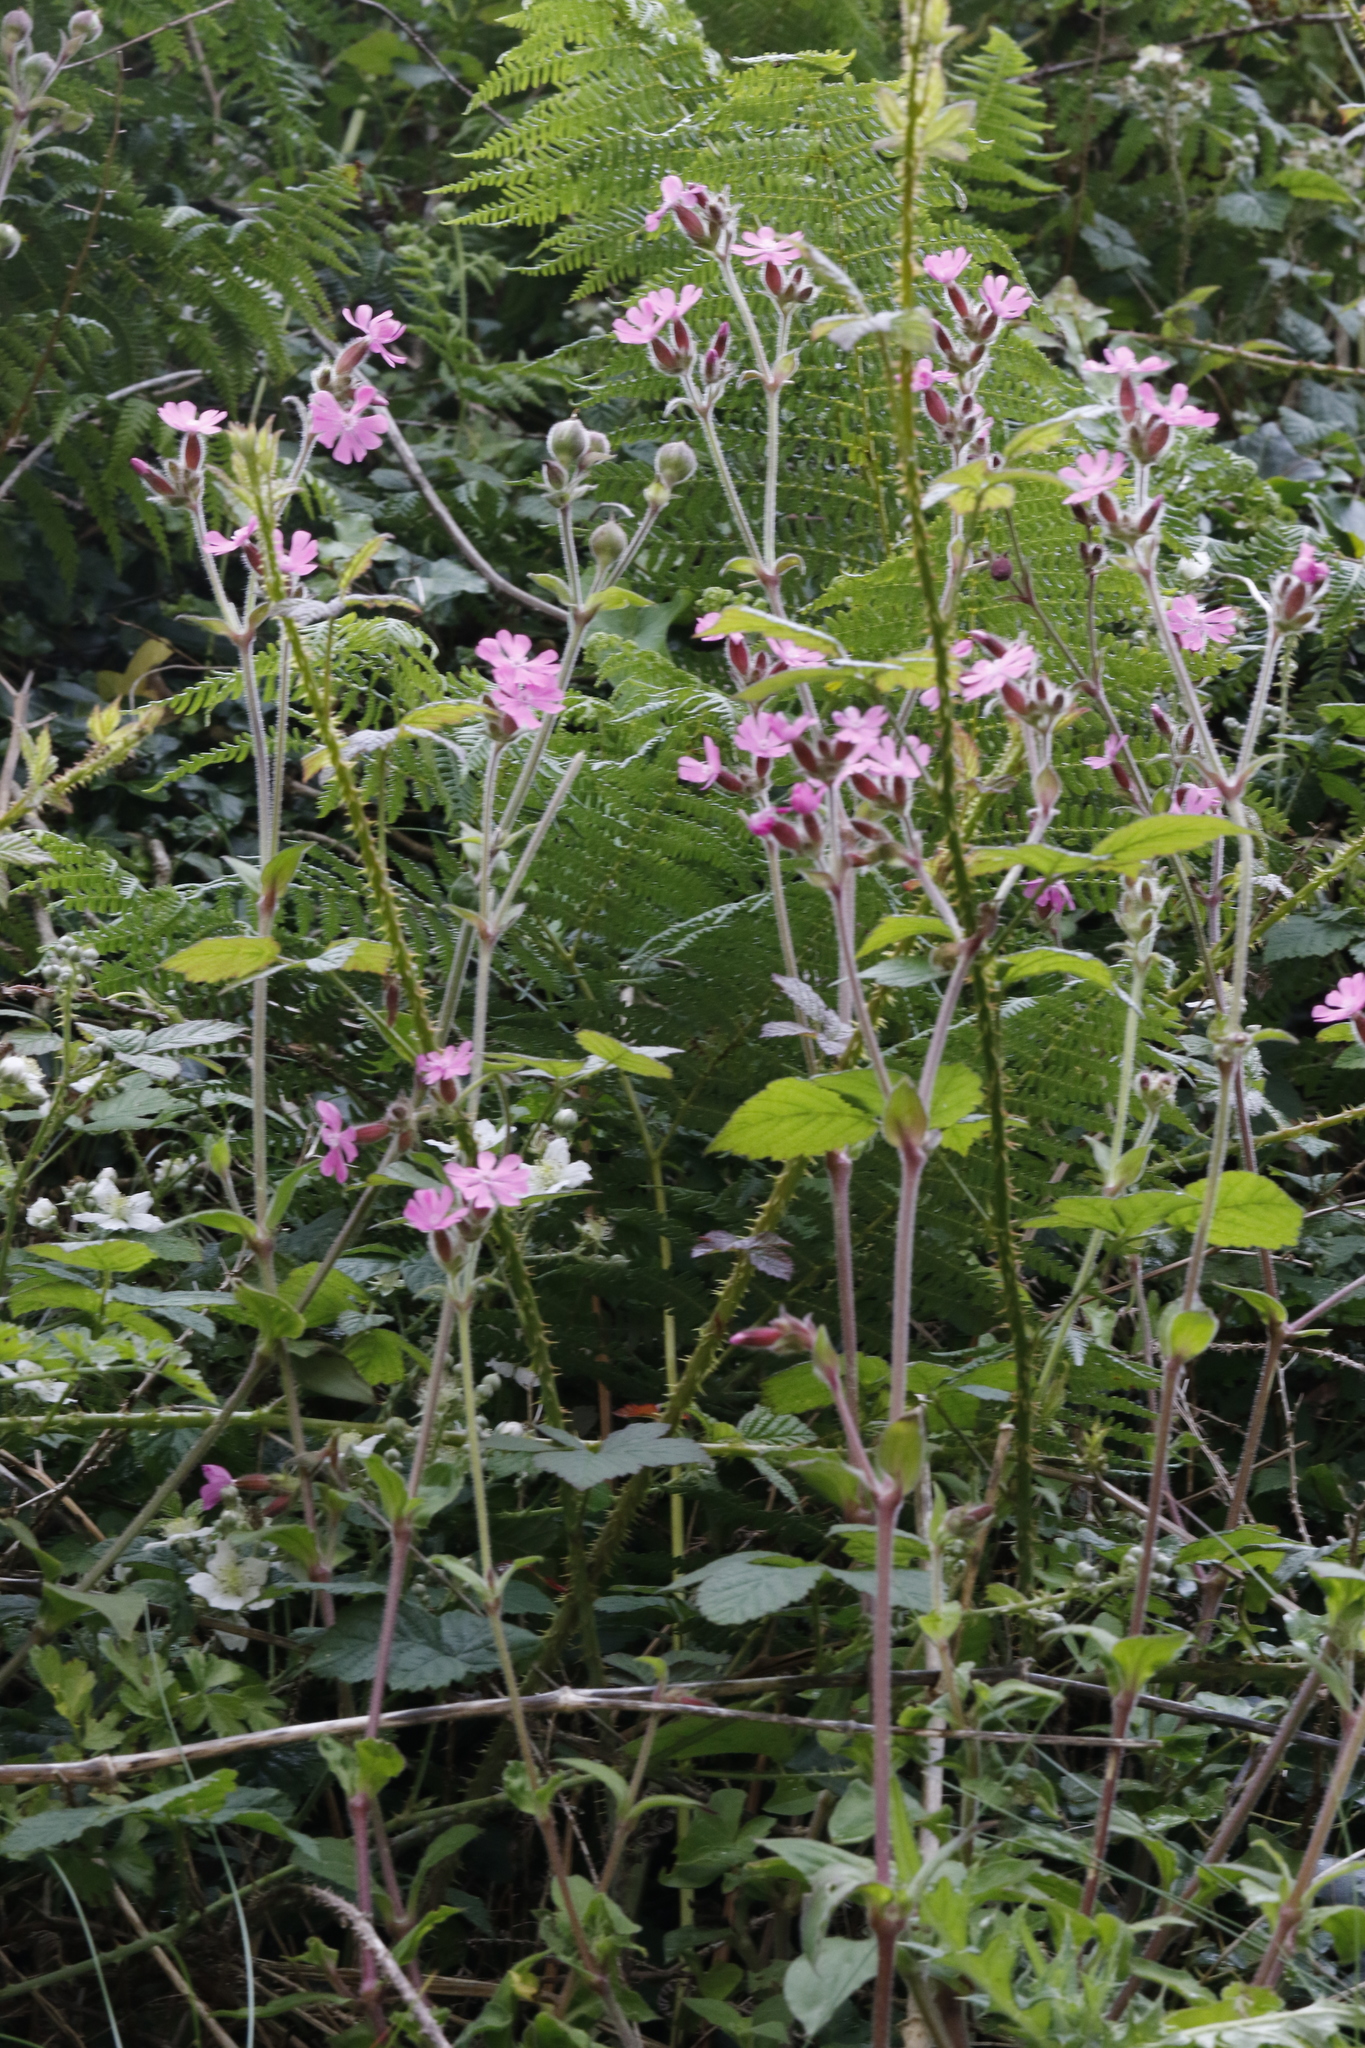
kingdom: Plantae
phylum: Tracheophyta
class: Magnoliopsida
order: Caryophyllales
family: Caryophyllaceae
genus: Silene
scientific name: Silene dioica
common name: Red campion
